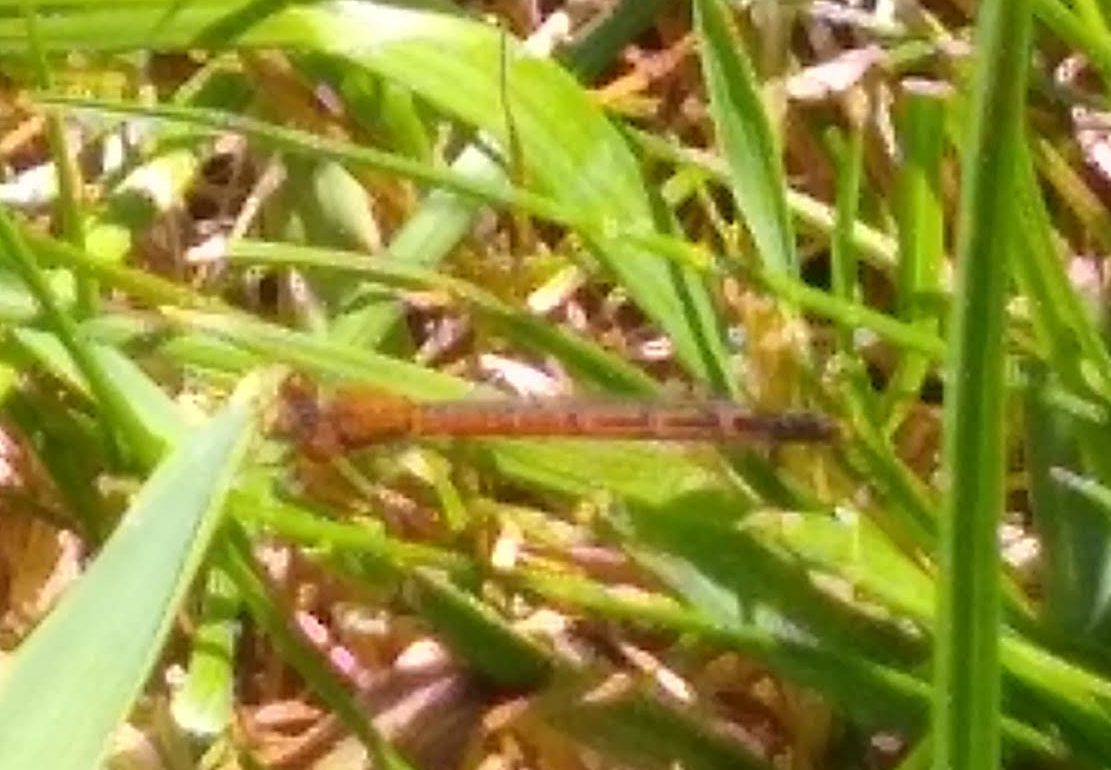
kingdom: Animalia
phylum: Arthropoda
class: Insecta
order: Odonata
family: Coenagrionidae
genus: Amphiagrion
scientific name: Amphiagrion saucium
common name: Eastern red damsel
